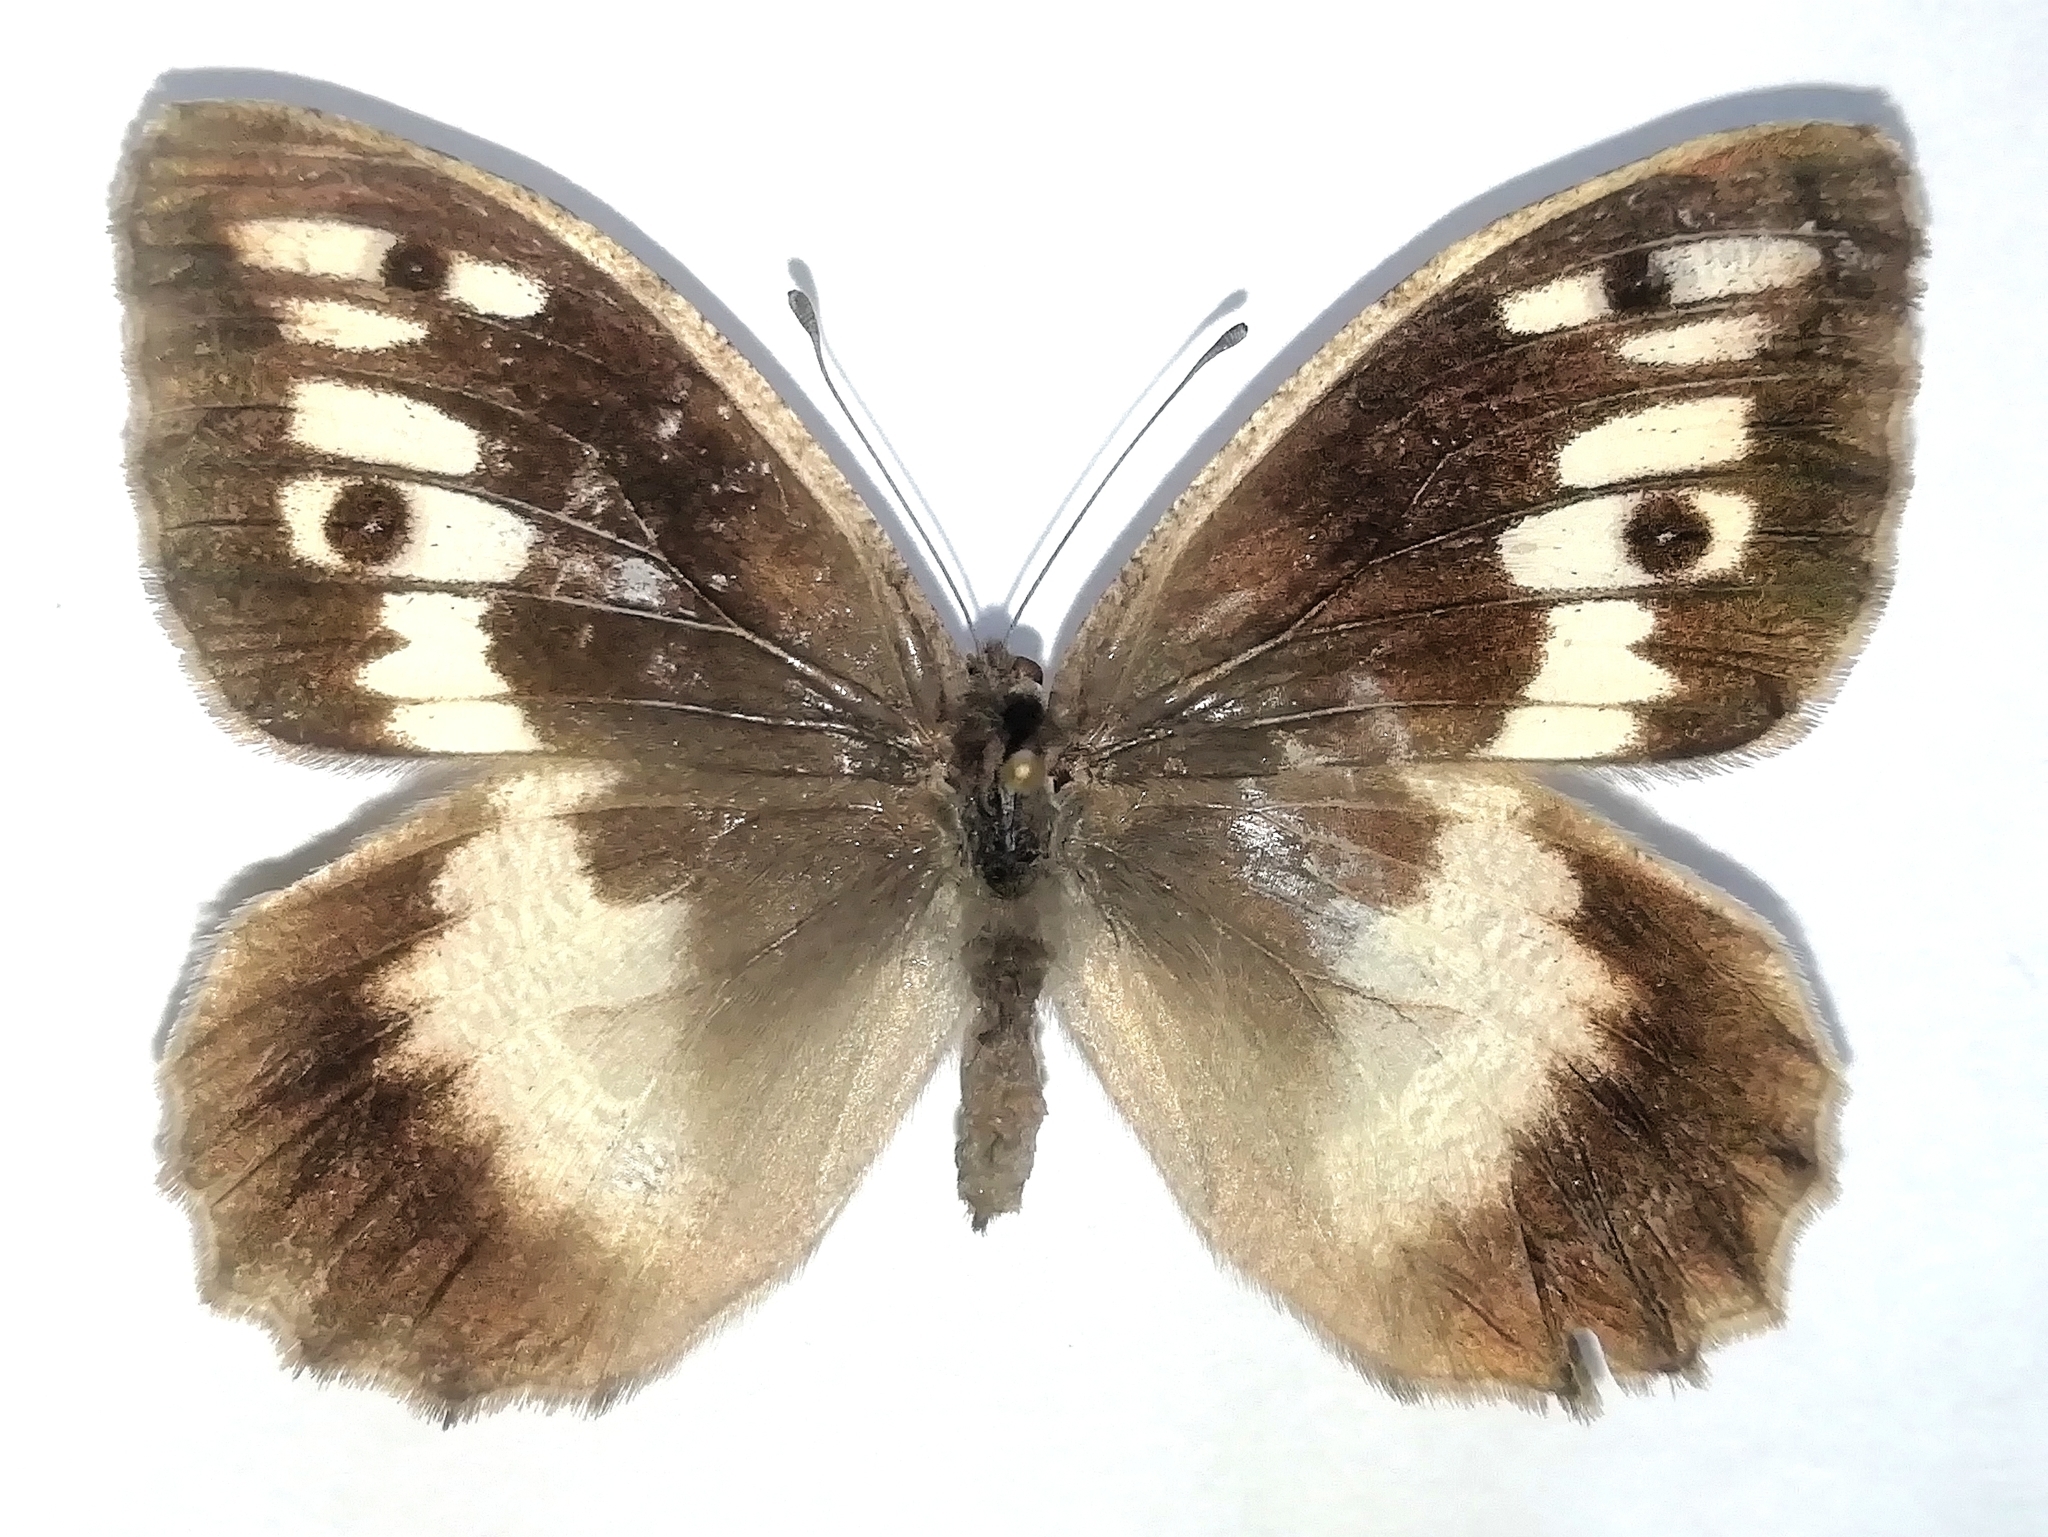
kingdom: Animalia
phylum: Arthropoda
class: Insecta
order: Lepidoptera
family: Nymphalidae
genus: Satyrus
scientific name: Satyrus briseis
